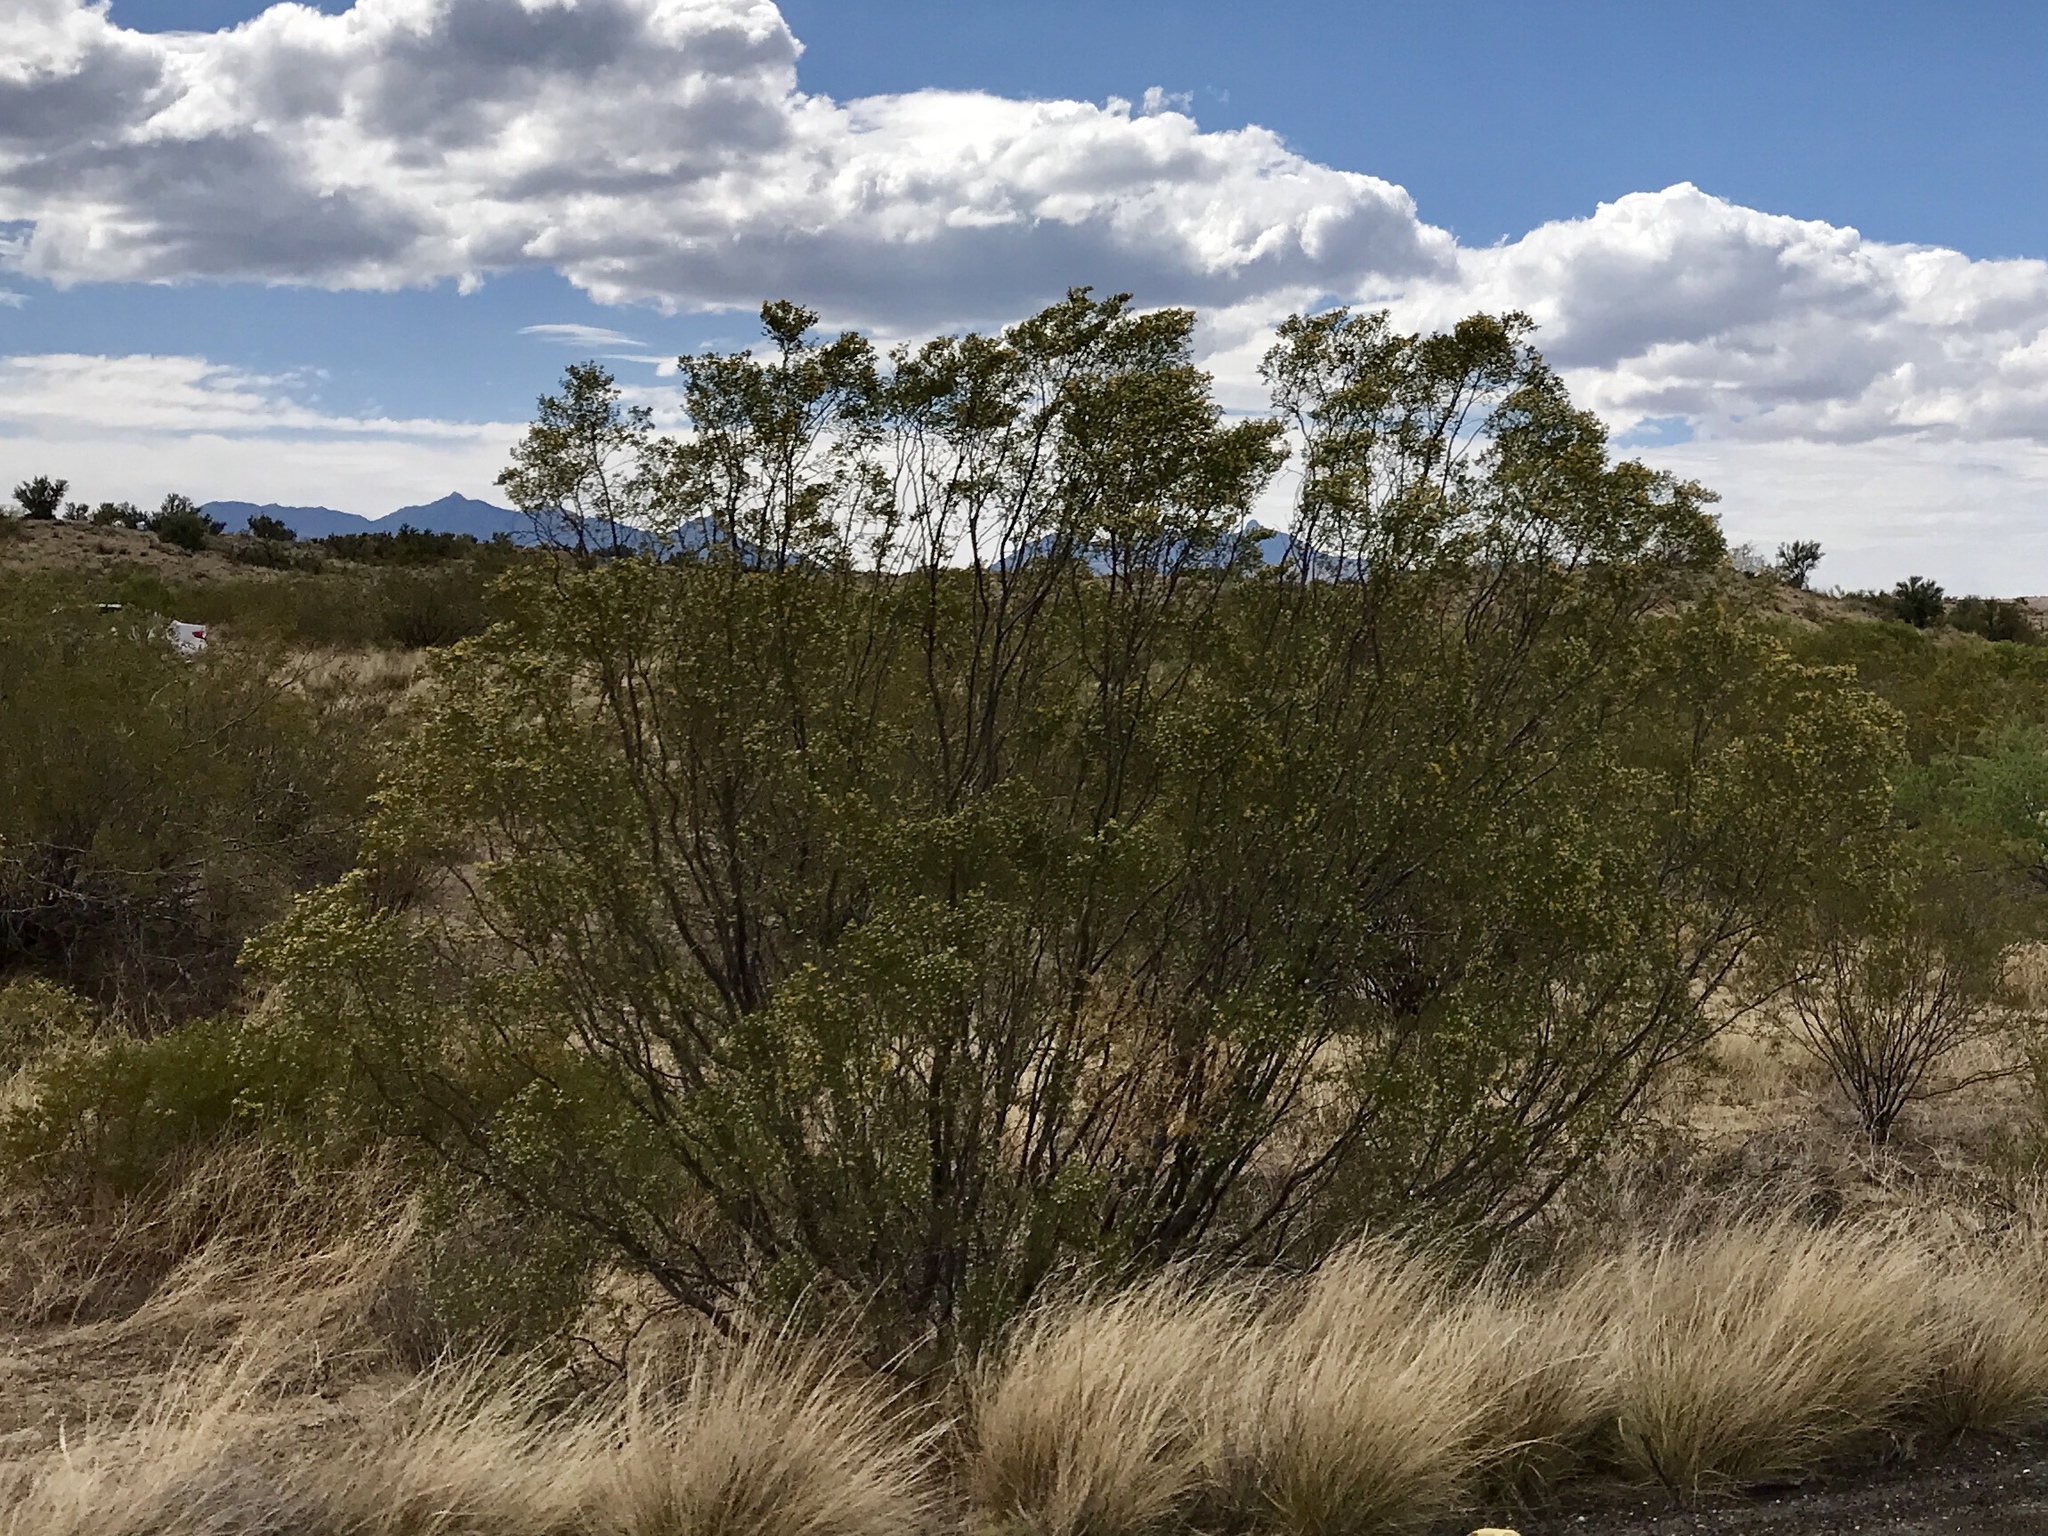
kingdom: Plantae
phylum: Tracheophyta
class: Magnoliopsida
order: Zygophyllales
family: Zygophyllaceae
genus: Larrea
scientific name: Larrea tridentata
